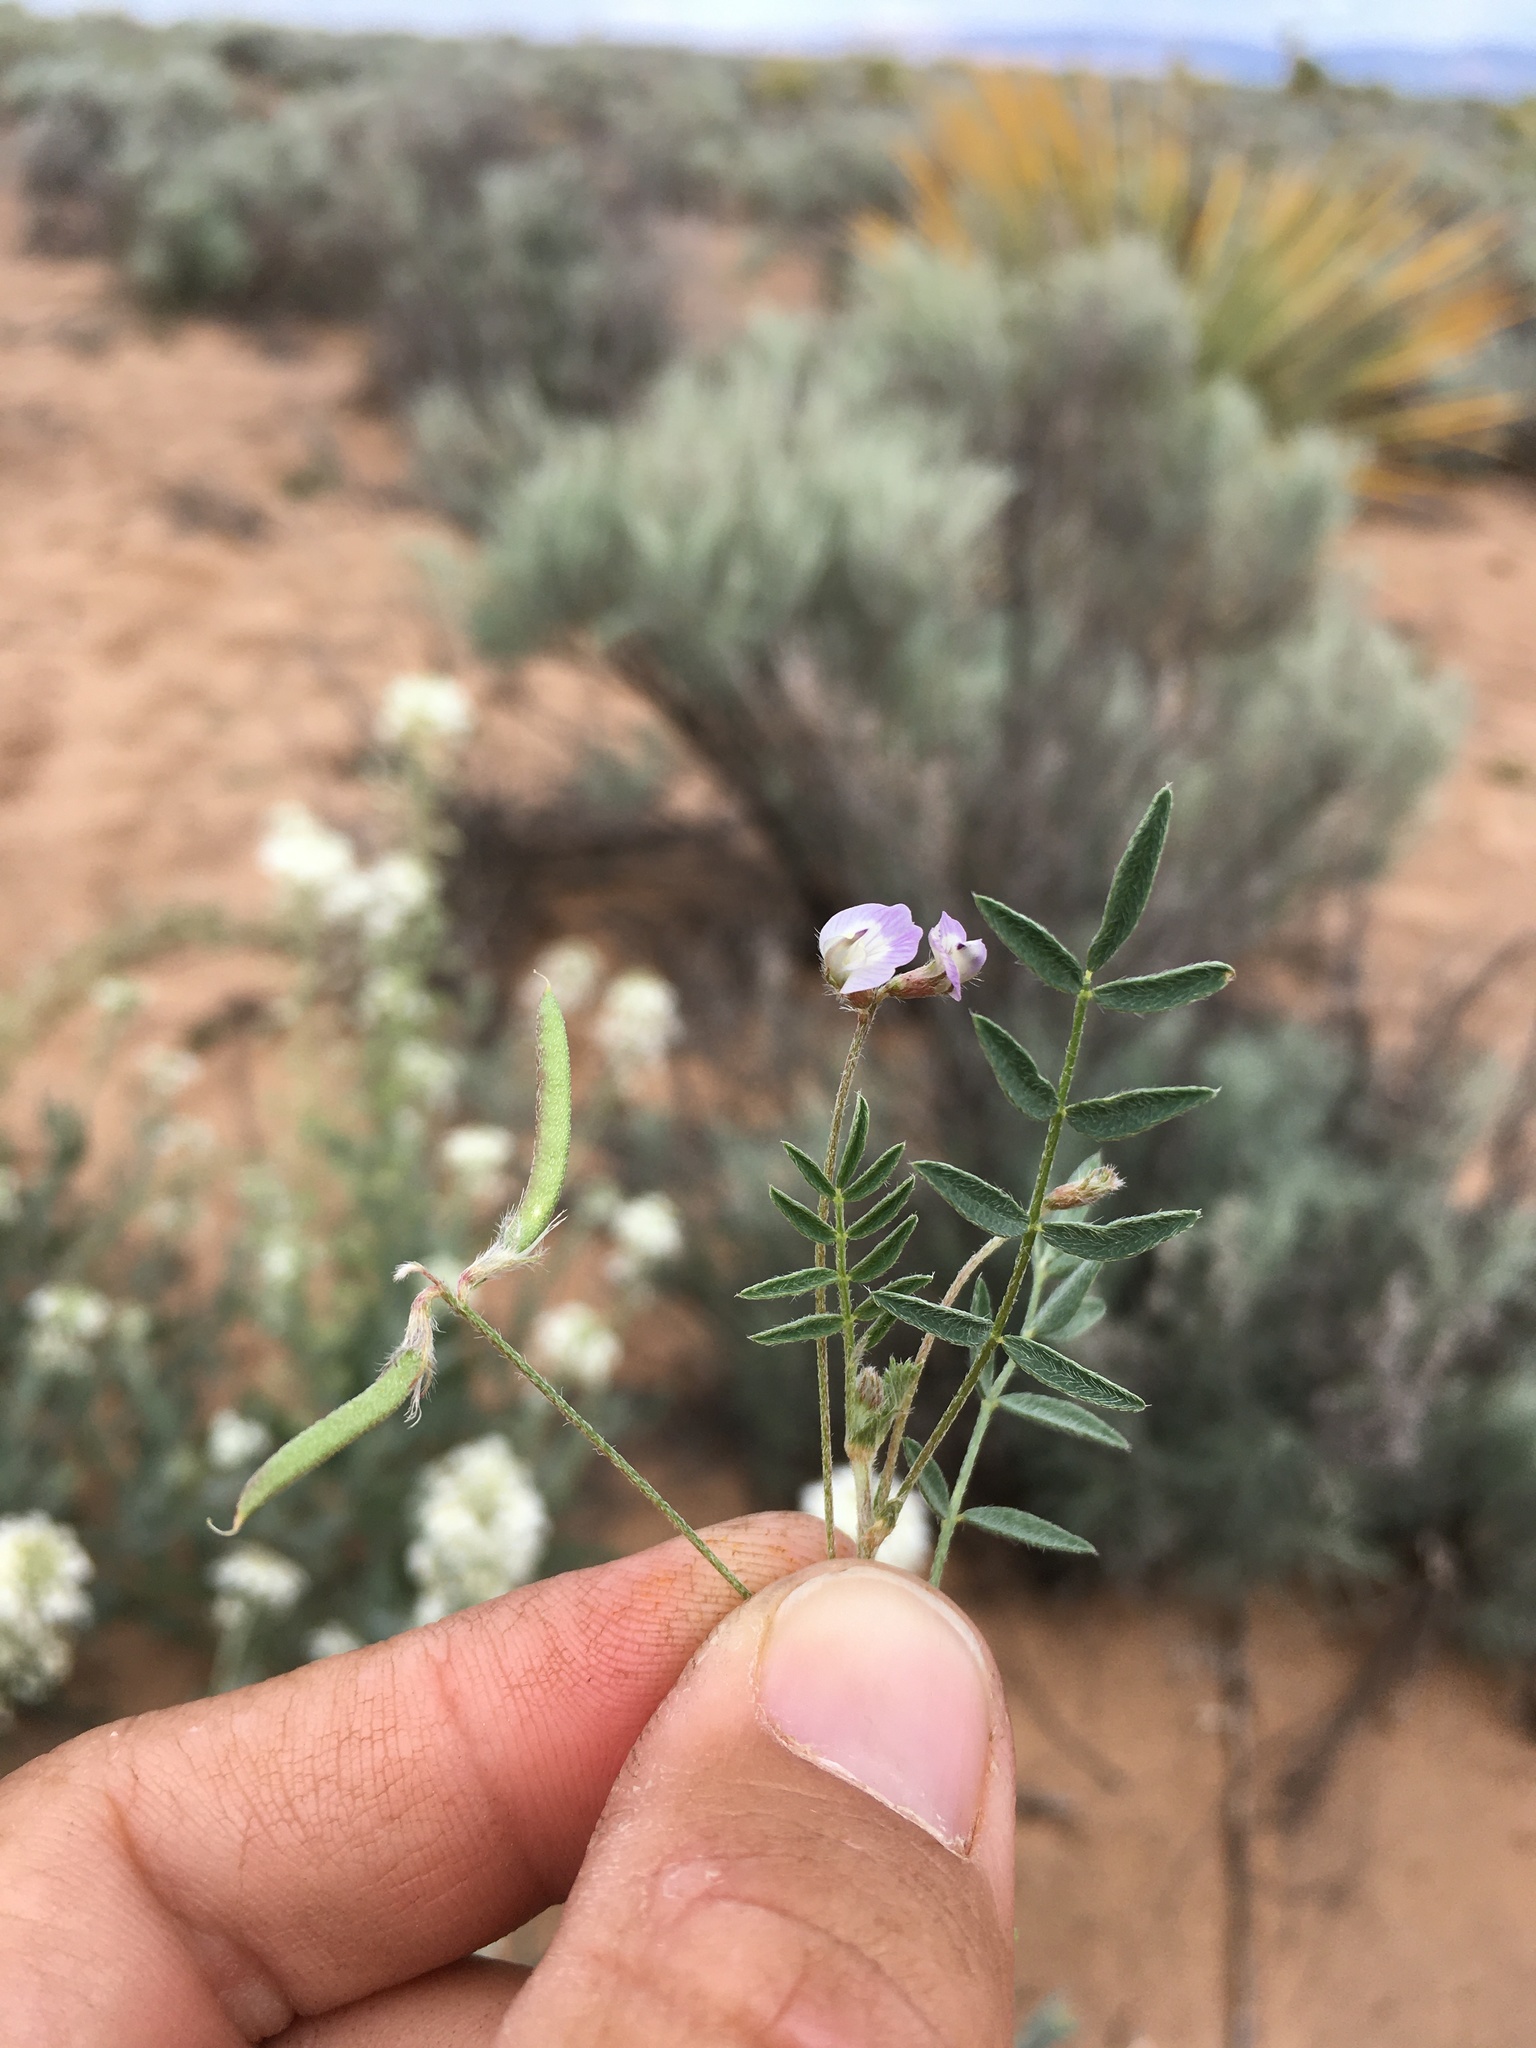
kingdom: Plantae
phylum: Tracheophyta
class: Magnoliopsida
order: Fabales
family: Fabaceae
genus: Astragalus
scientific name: Astragalus nuttallianus
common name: Smallflowered milkvetch
